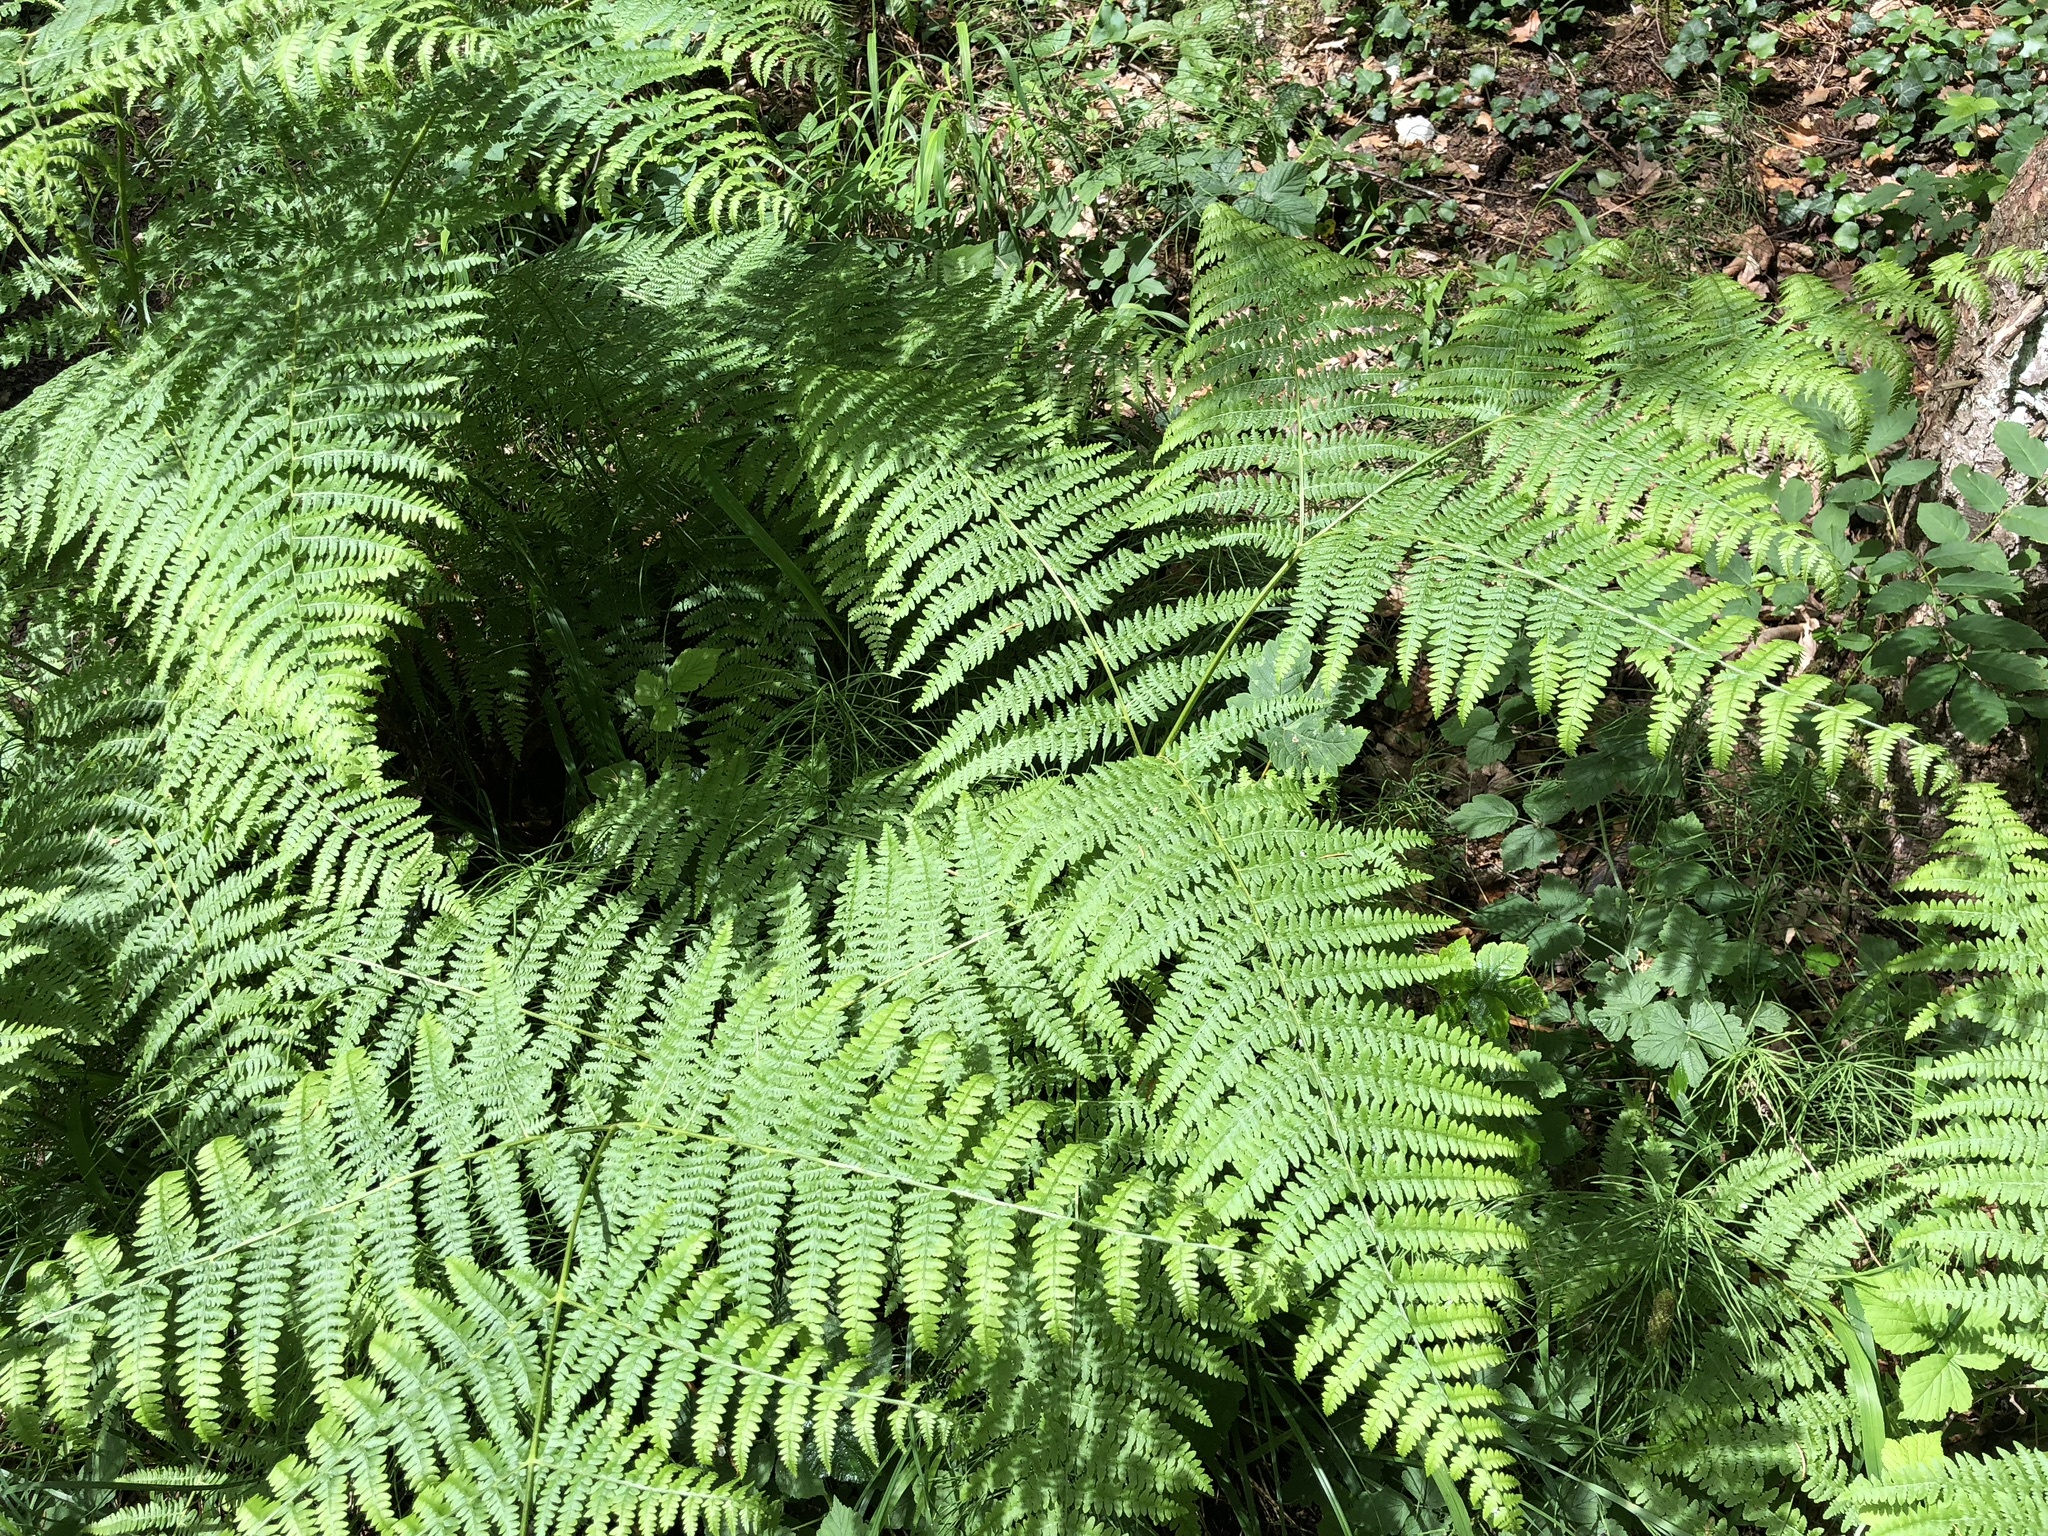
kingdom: Plantae
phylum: Tracheophyta
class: Polypodiopsida
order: Polypodiales
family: Dennstaedtiaceae
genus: Pteridium
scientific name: Pteridium aquilinum
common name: Bracken
